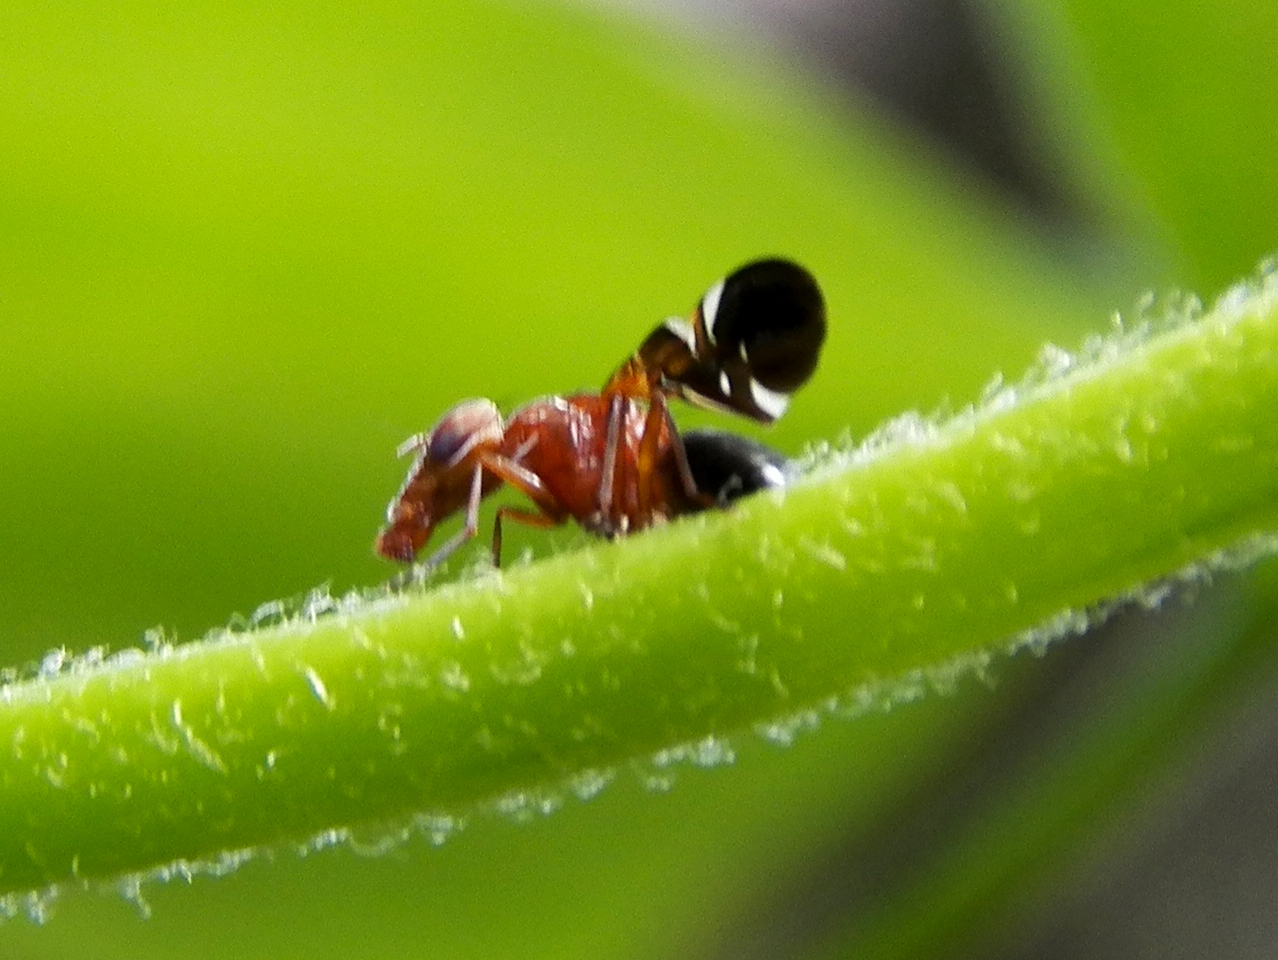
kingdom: Animalia
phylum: Arthropoda
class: Insecta
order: Diptera
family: Ulidiidae
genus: Delphinia
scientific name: Delphinia picta
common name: Common picture-winged fly
